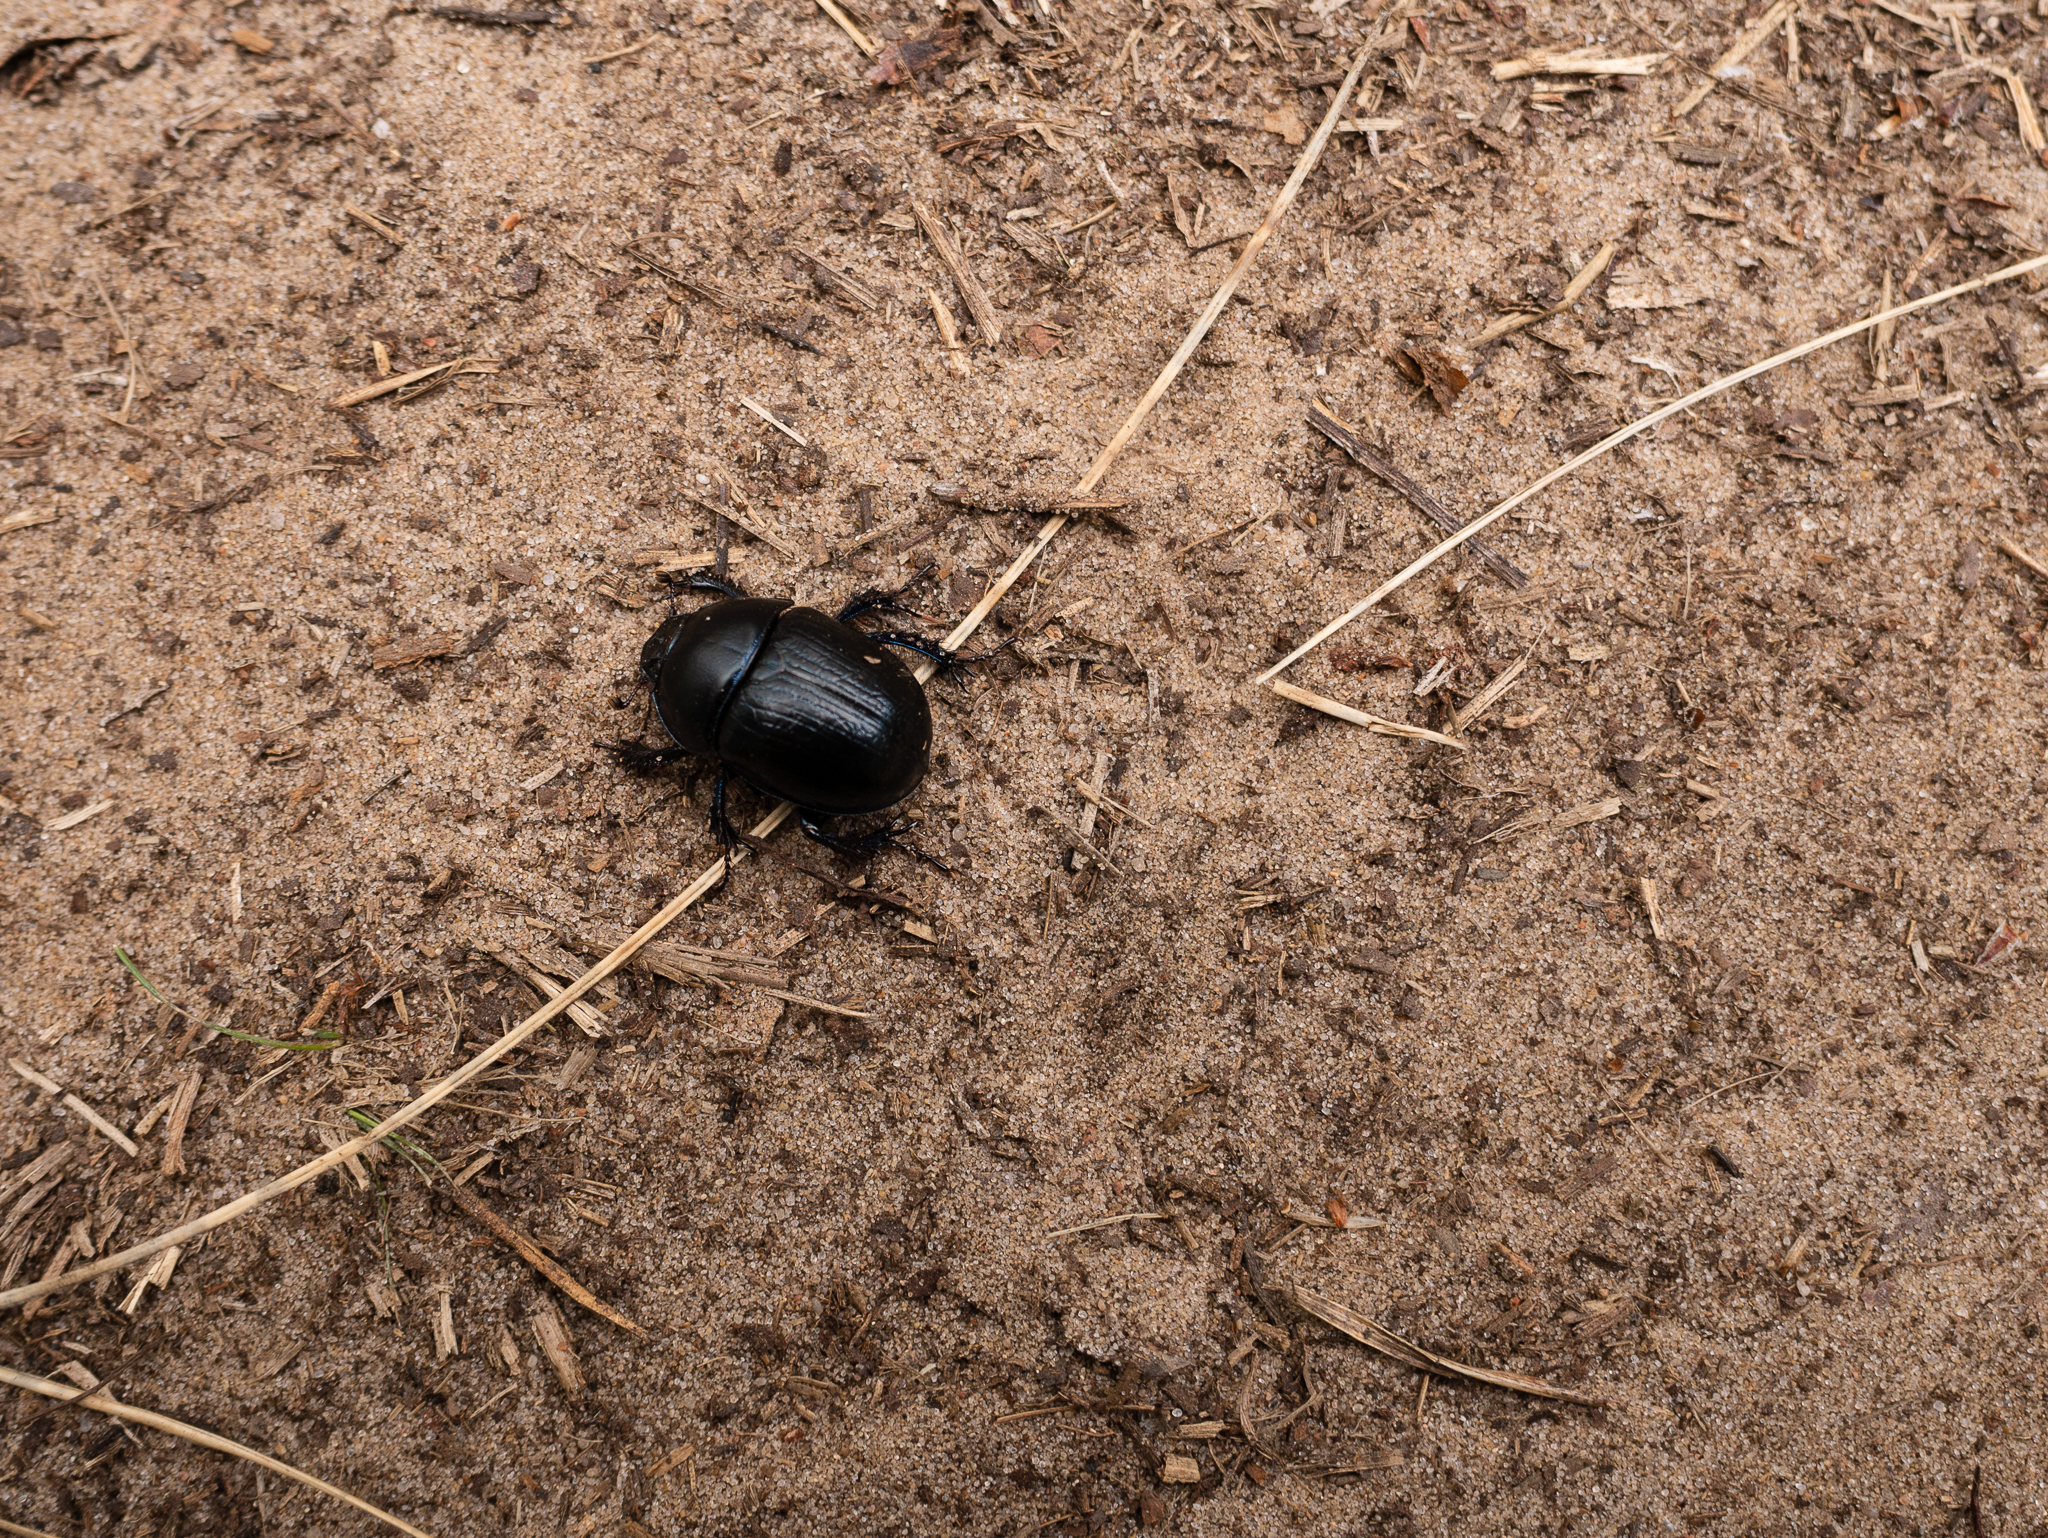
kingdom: Animalia
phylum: Arthropoda
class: Insecta
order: Coleoptera
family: Geotrupidae
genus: Anoplotrupes
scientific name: Anoplotrupes stercorosus
